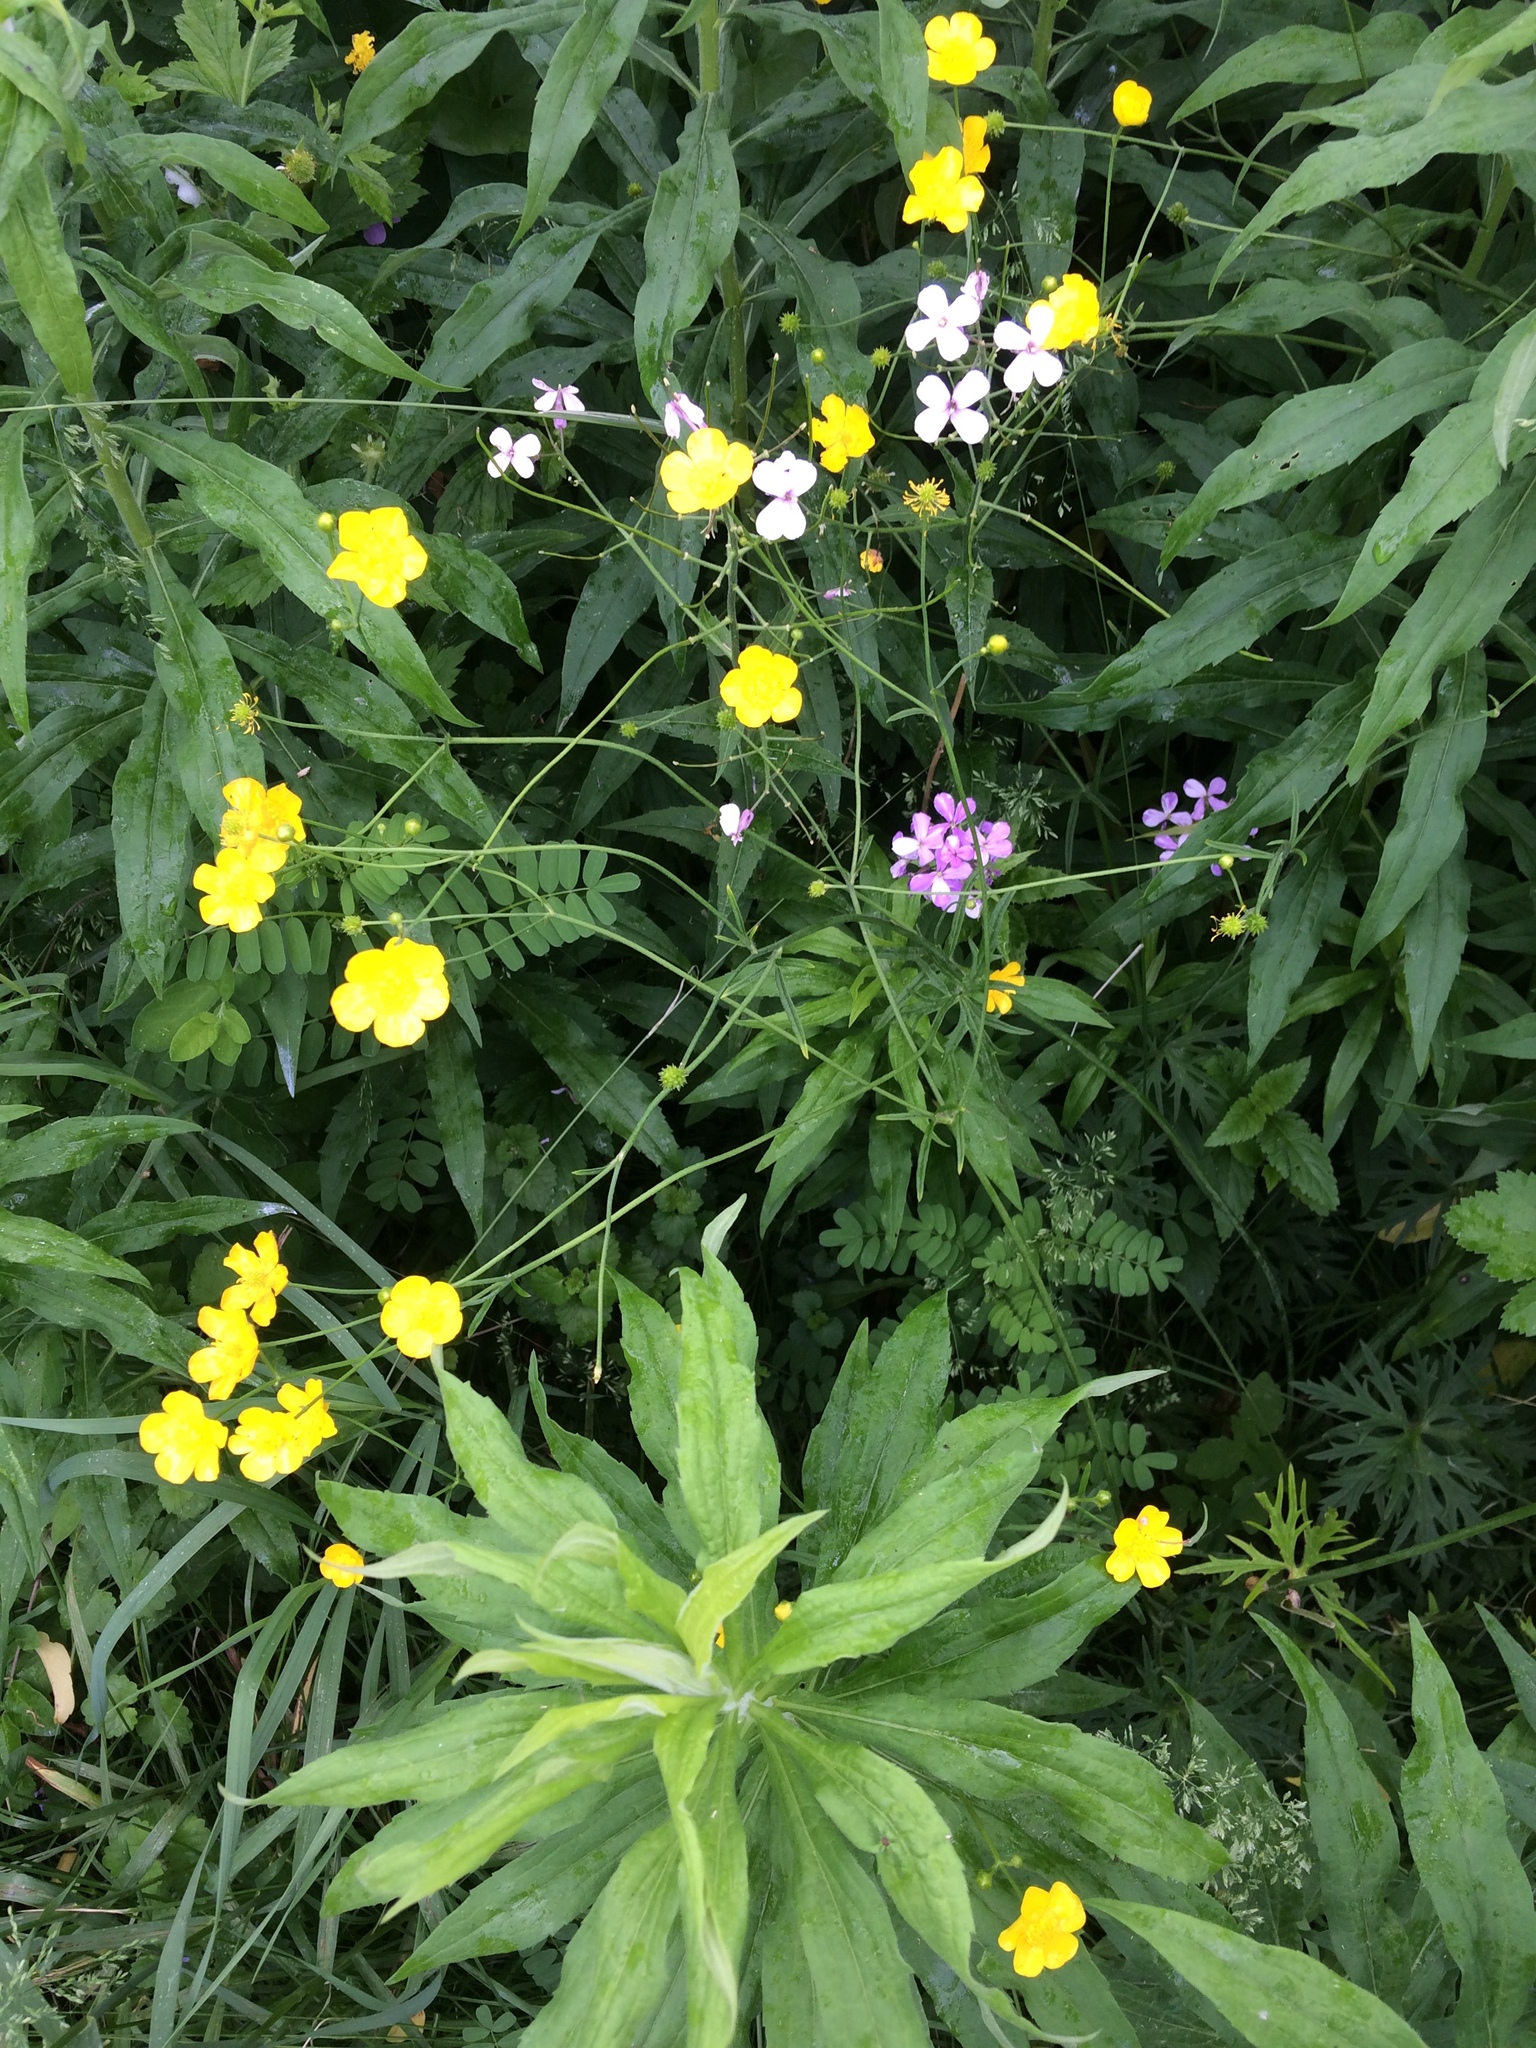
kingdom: Plantae
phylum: Tracheophyta
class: Magnoliopsida
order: Ranunculales
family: Ranunculaceae
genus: Ranunculus
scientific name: Ranunculus acris
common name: Meadow buttercup
